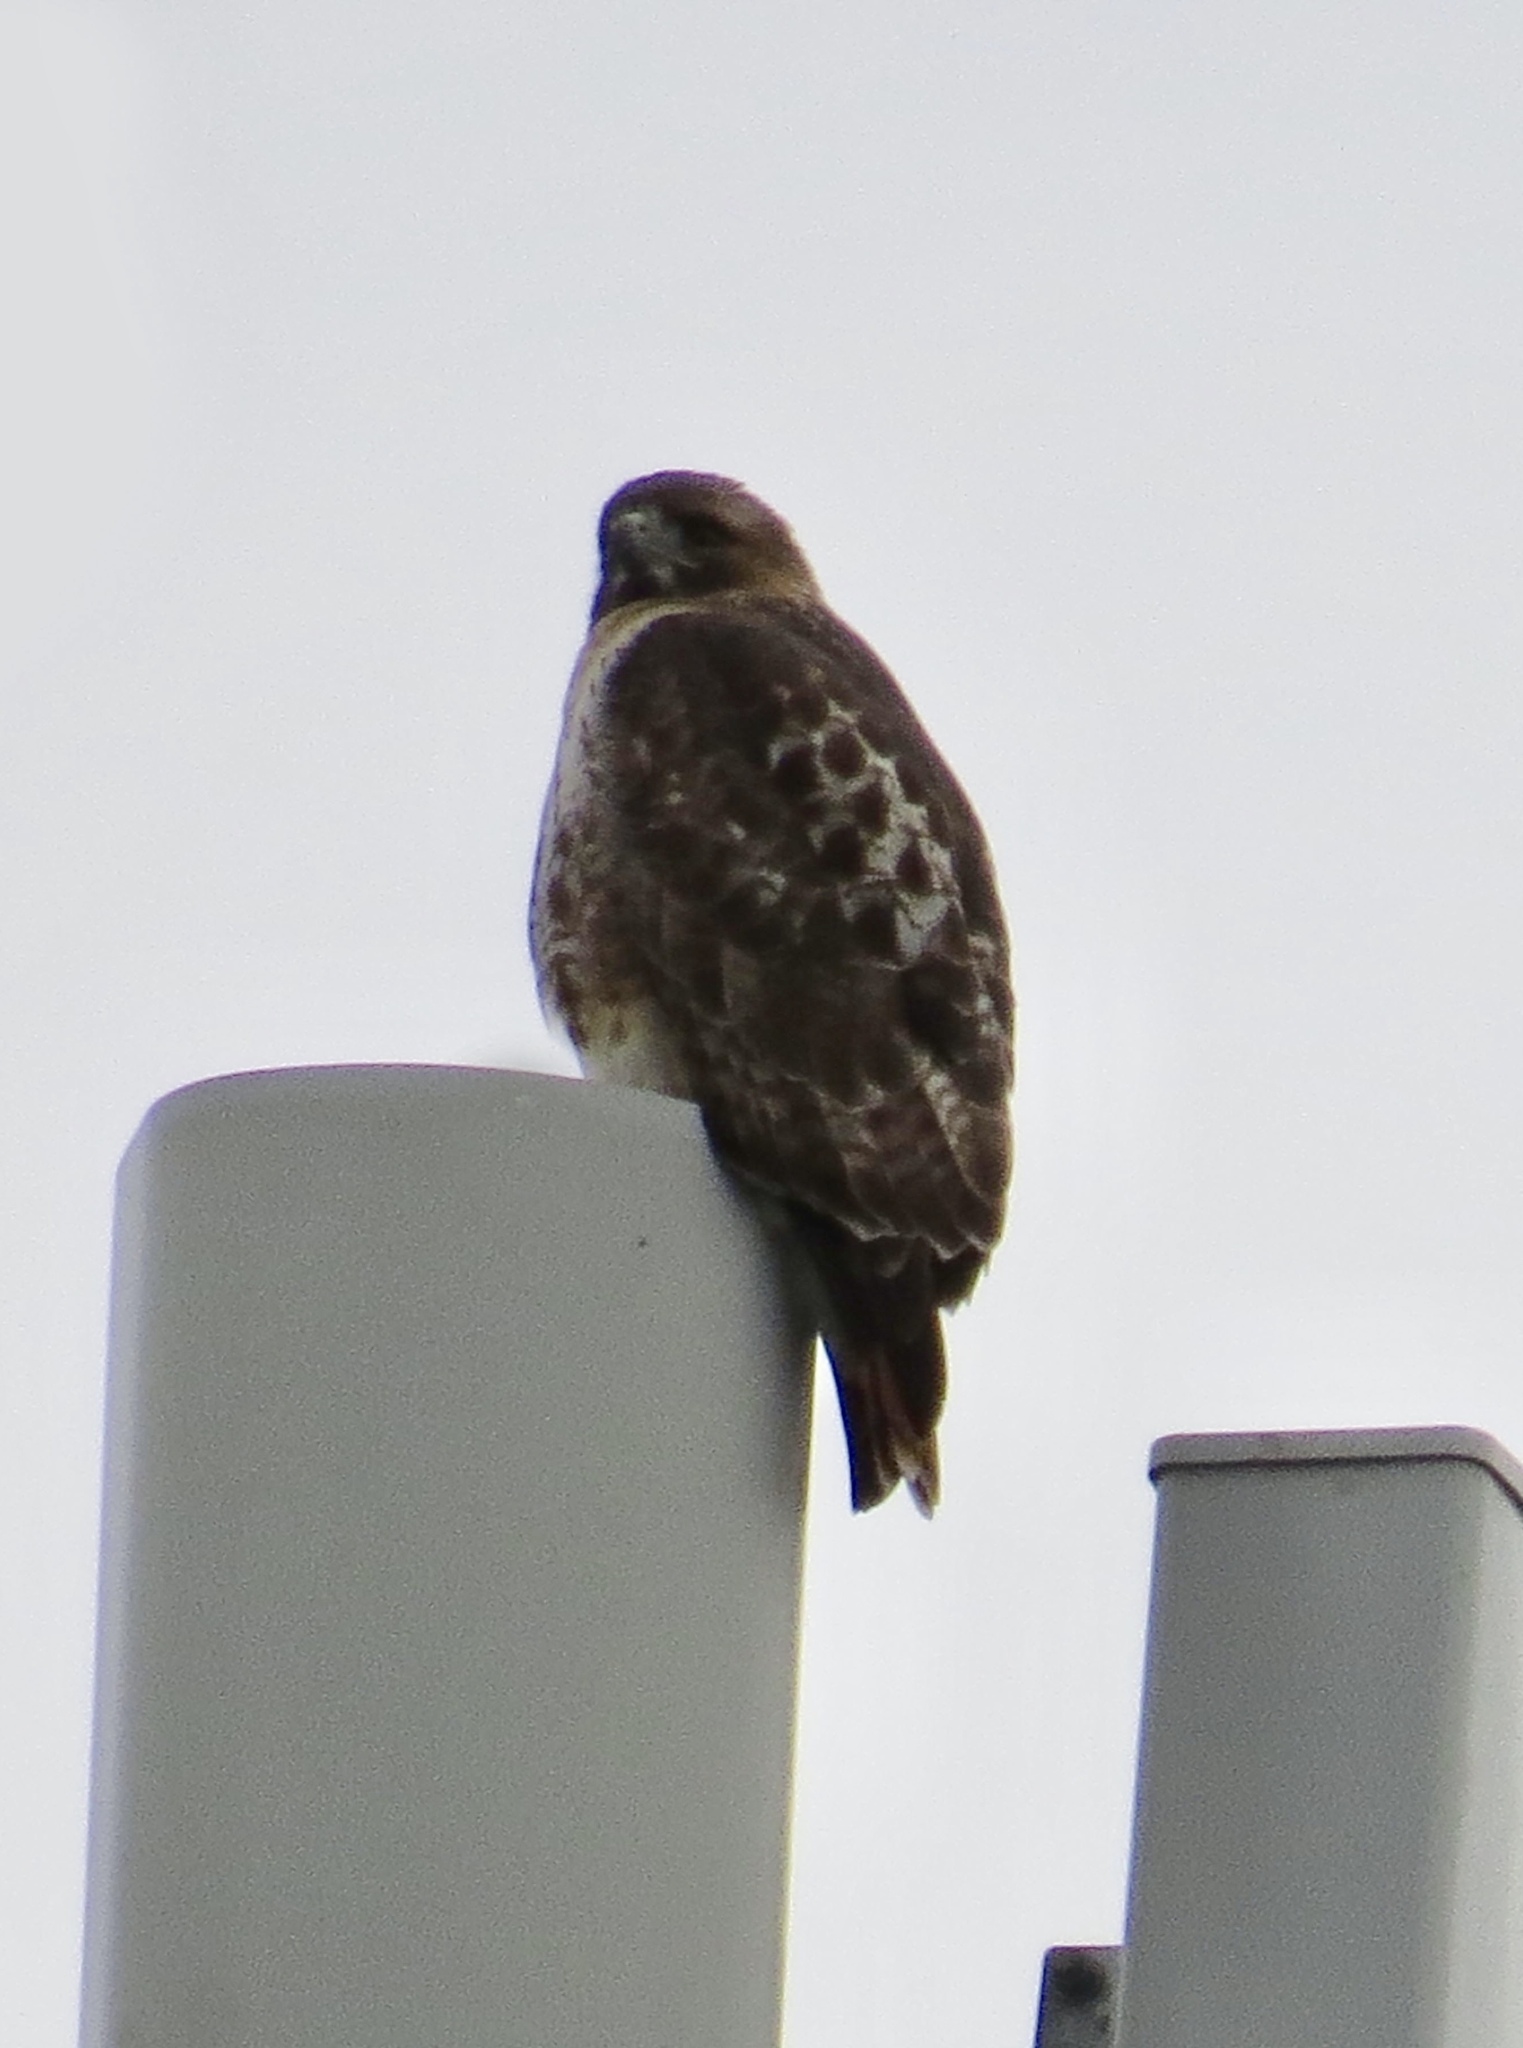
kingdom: Animalia
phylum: Chordata
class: Aves
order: Accipitriformes
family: Accipitridae
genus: Buteo
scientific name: Buteo jamaicensis
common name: Red-tailed hawk
